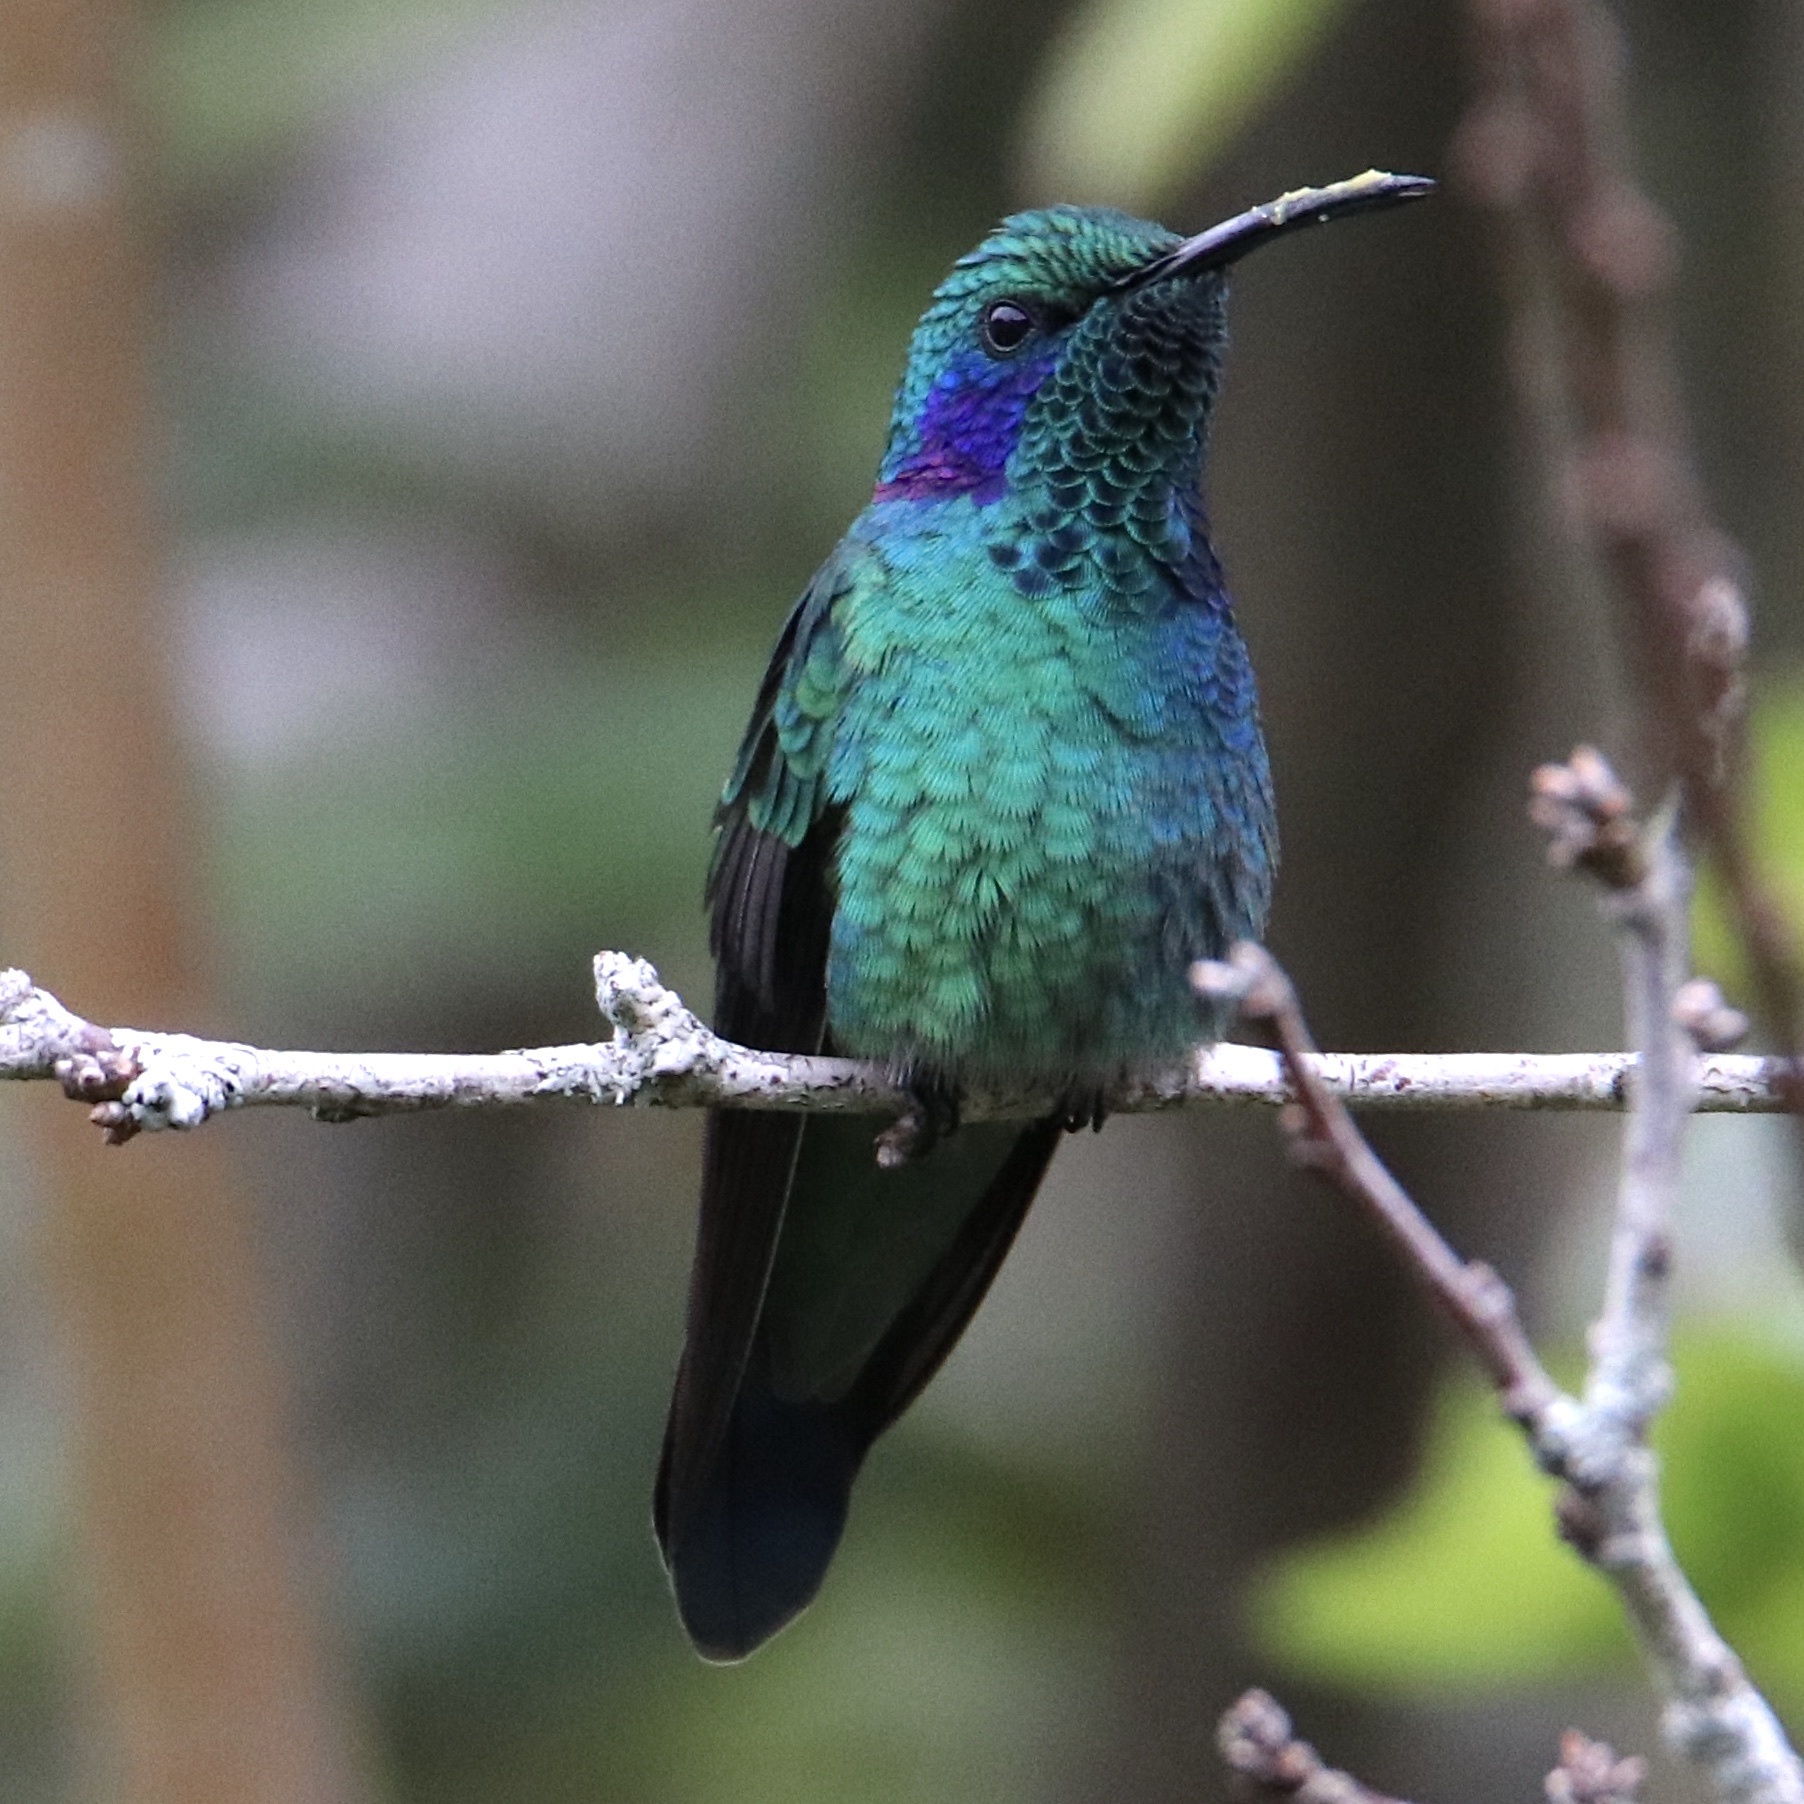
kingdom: Animalia
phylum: Chordata
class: Aves
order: Apodiformes
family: Trochilidae
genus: Colibri
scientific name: Colibri cyanotus
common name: Lesser violetear
